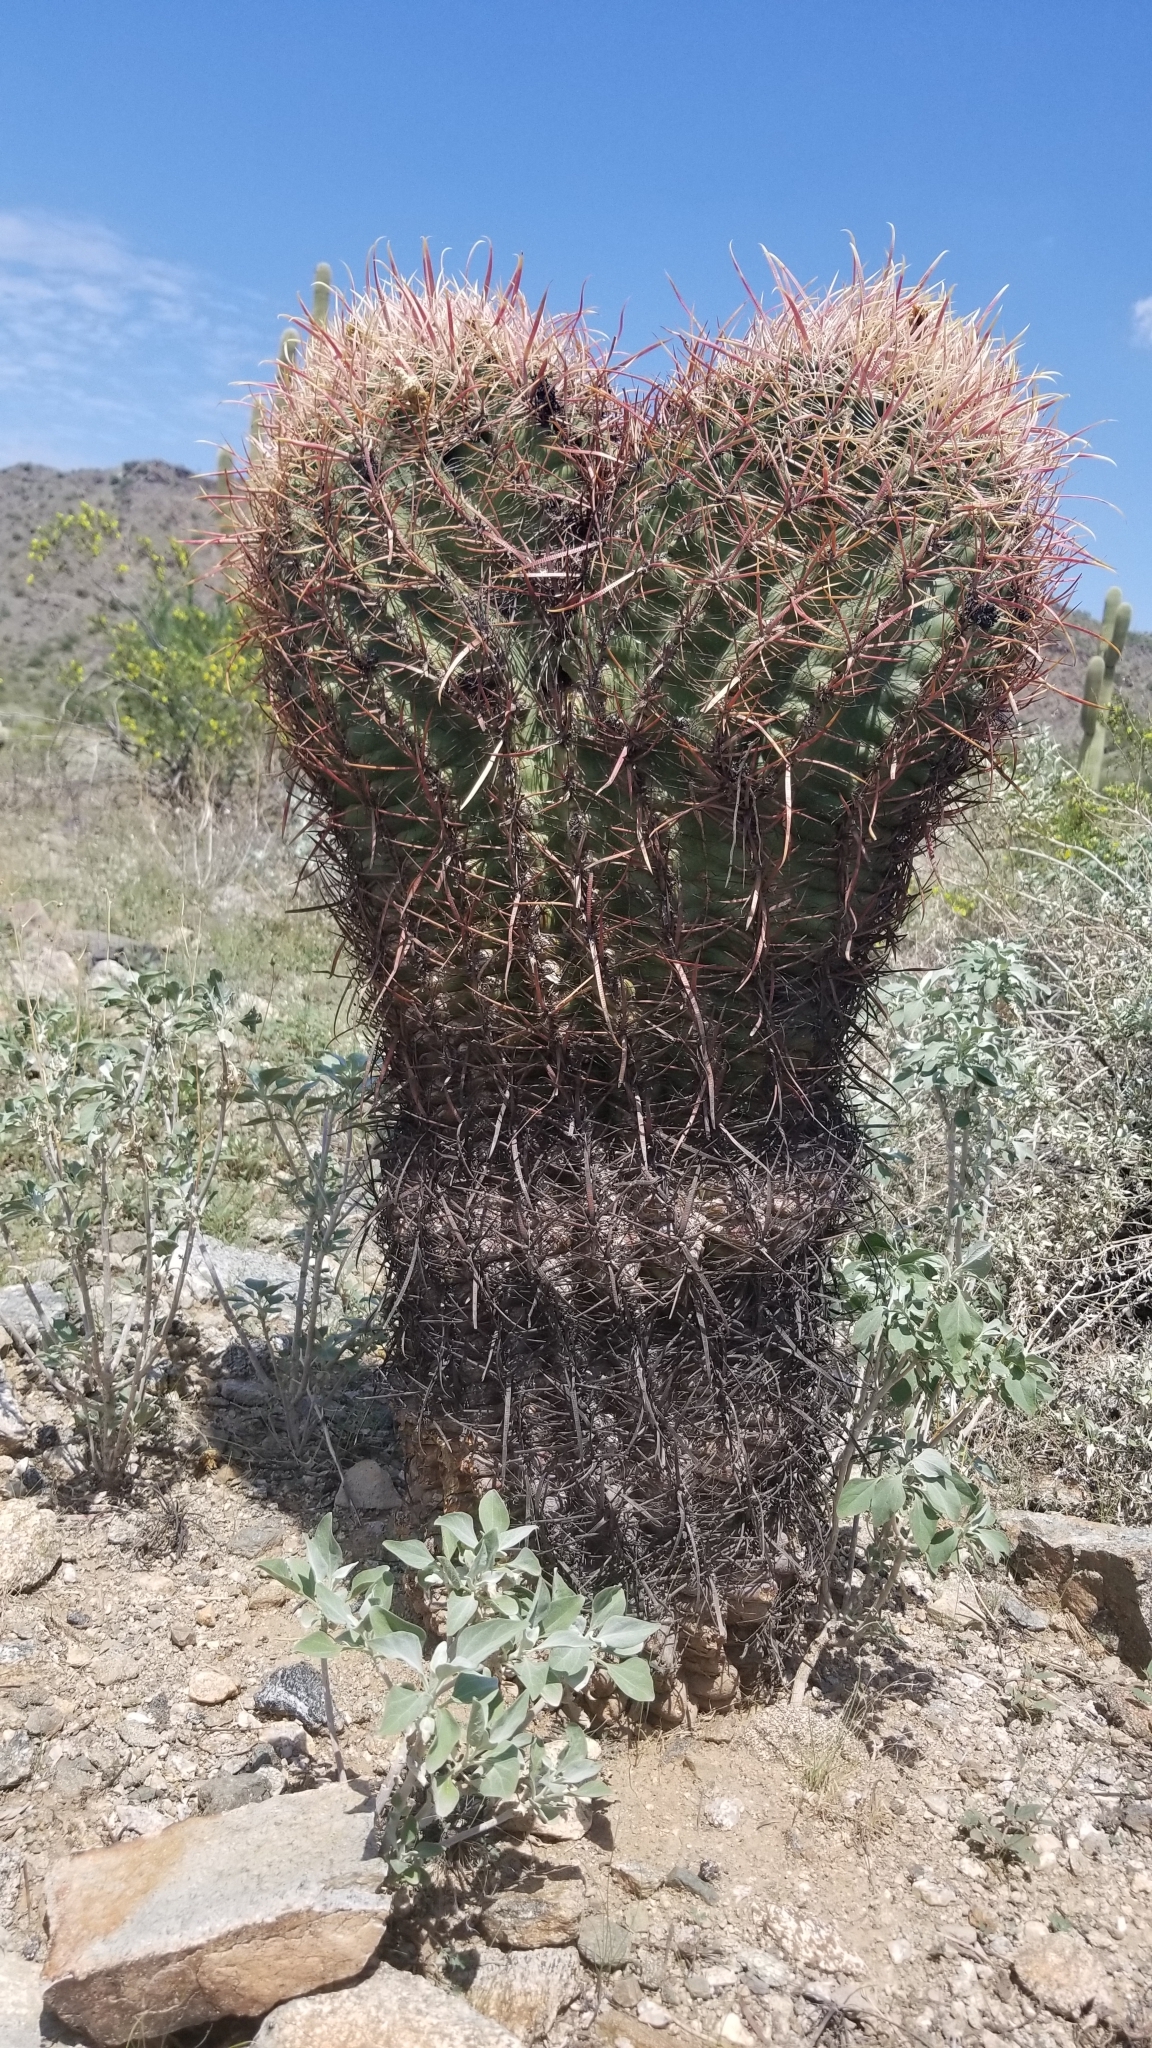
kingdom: Plantae
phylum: Tracheophyta
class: Magnoliopsida
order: Caryophyllales
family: Cactaceae
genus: Ferocactus
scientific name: Ferocactus cylindraceus
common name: California barrel cactus
